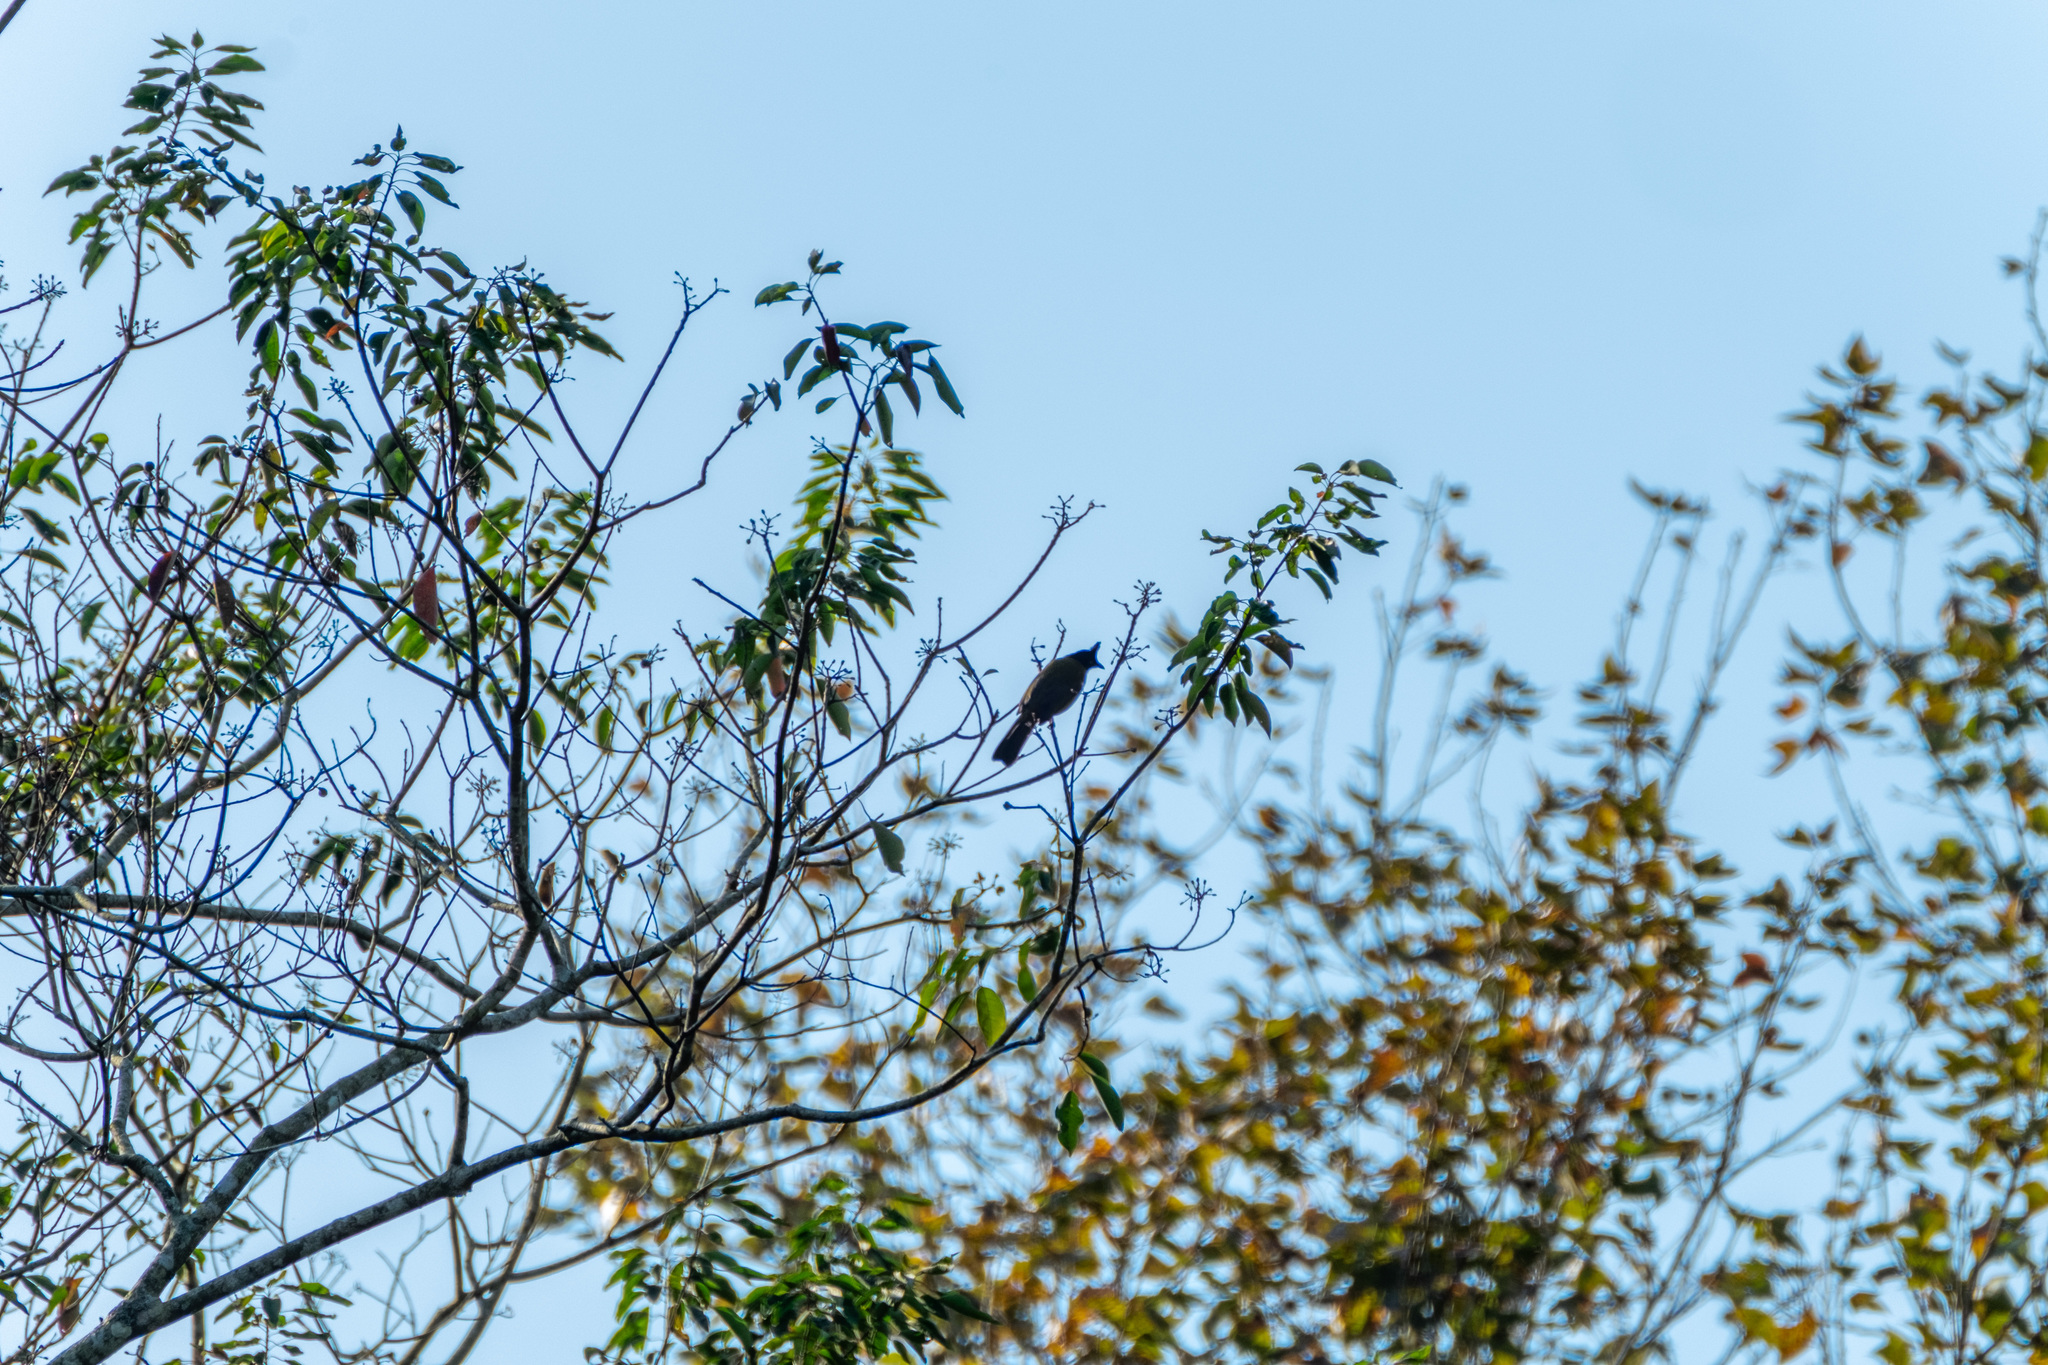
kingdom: Animalia
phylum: Chordata
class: Aves
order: Passeriformes
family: Pycnonotidae
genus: Pycnonotus
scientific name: Pycnonotus flaviventris
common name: Black-crested bulbul
